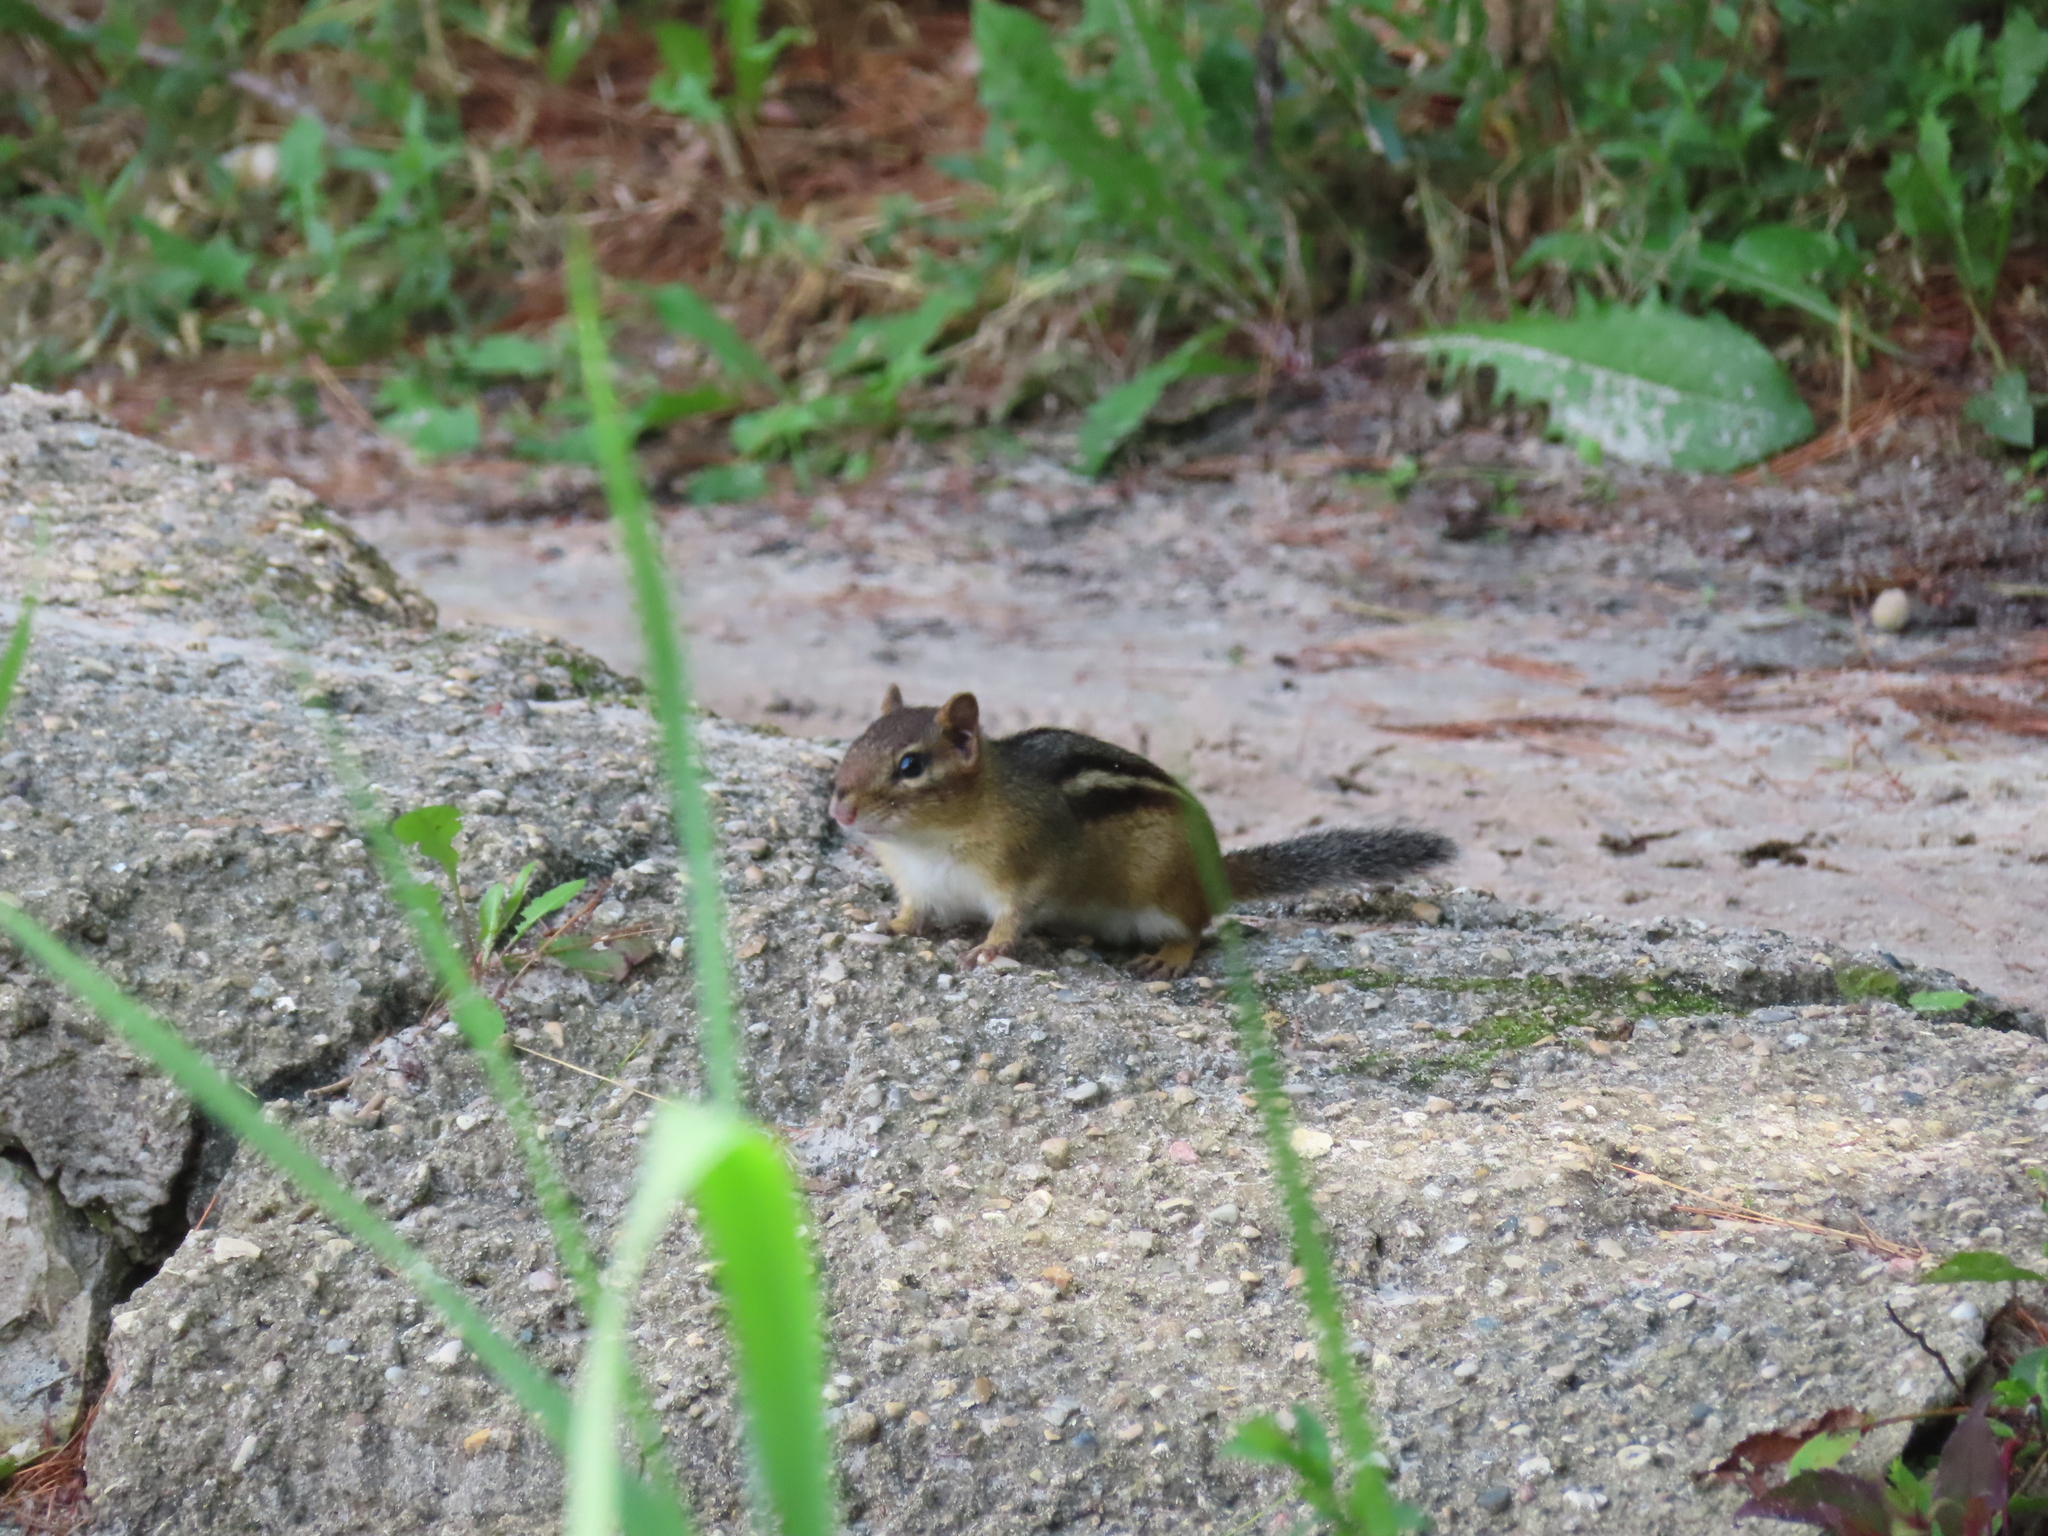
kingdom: Animalia
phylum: Chordata
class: Mammalia
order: Rodentia
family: Sciuridae
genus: Tamias
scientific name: Tamias striatus
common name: Eastern chipmunk
